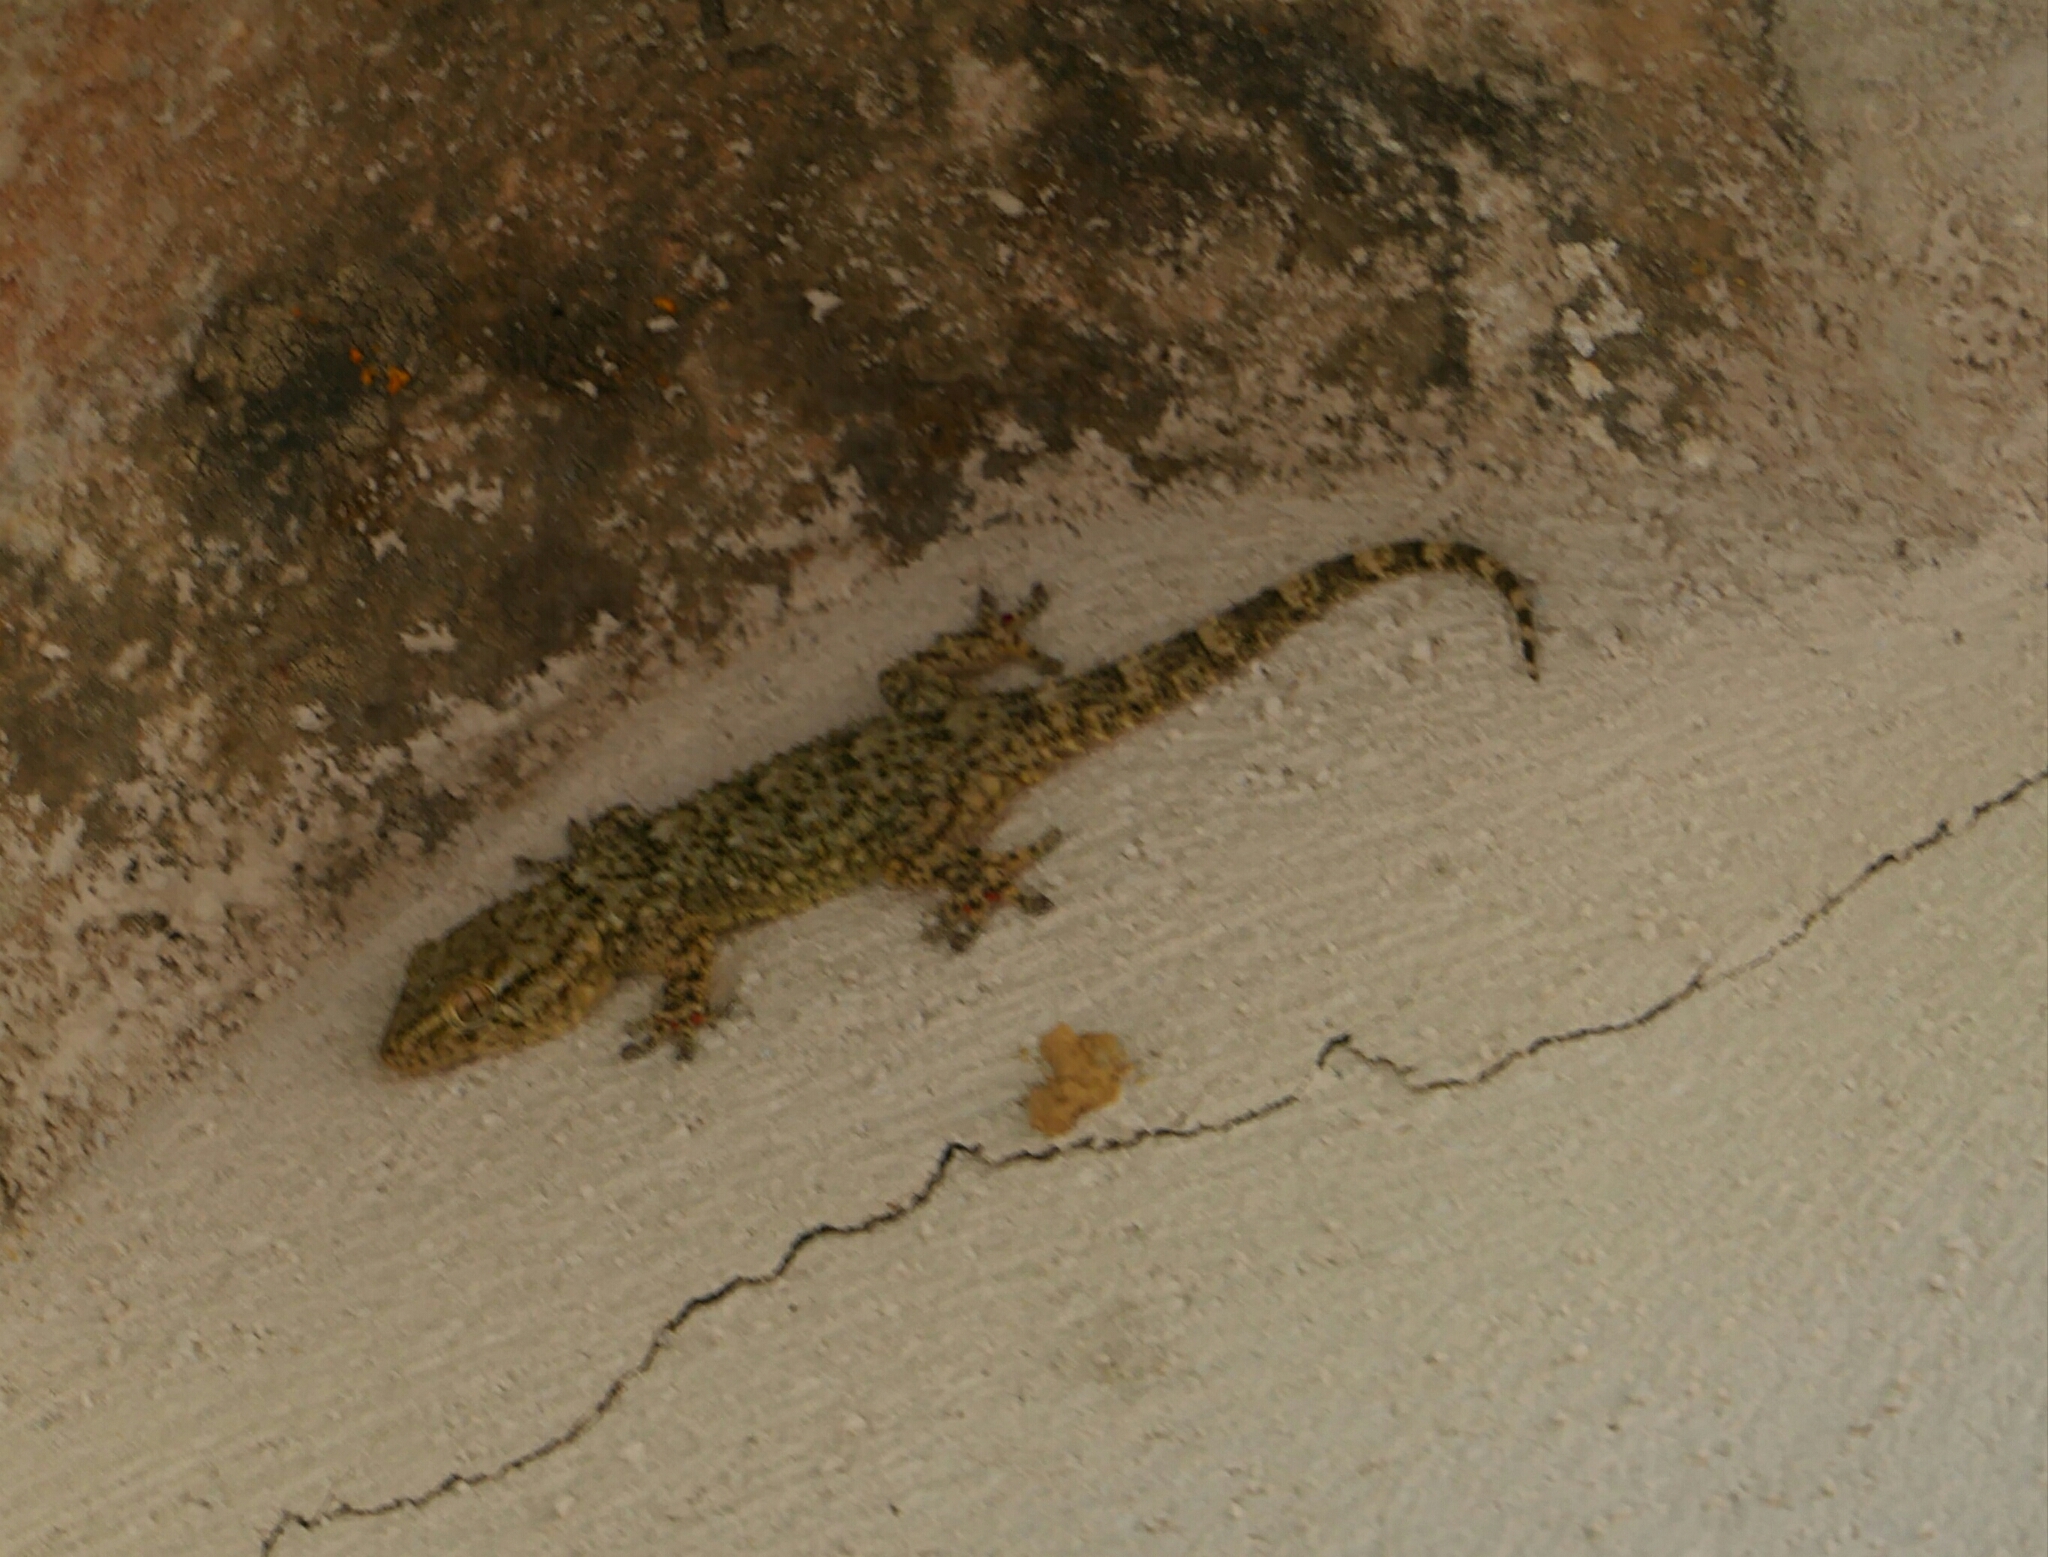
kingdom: Animalia
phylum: Chordata
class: Squamata
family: Phyllodactylidae
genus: Tarentola
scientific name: Tarentola mauritanica
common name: Moorish gecko
